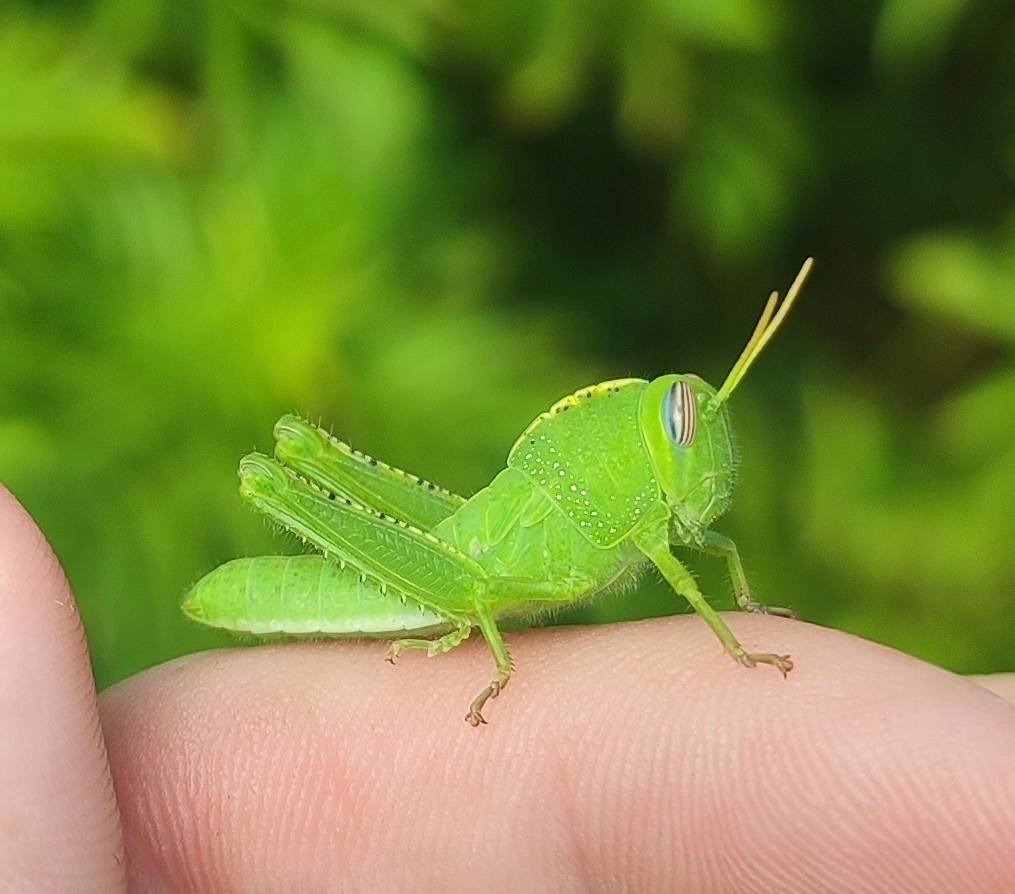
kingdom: Animalia
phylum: Arthropoda
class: Insecta
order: Orthoptera
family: Acrididae
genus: Anacridium
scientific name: Anacridium aegyptium
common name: Egyptian grasshopper
